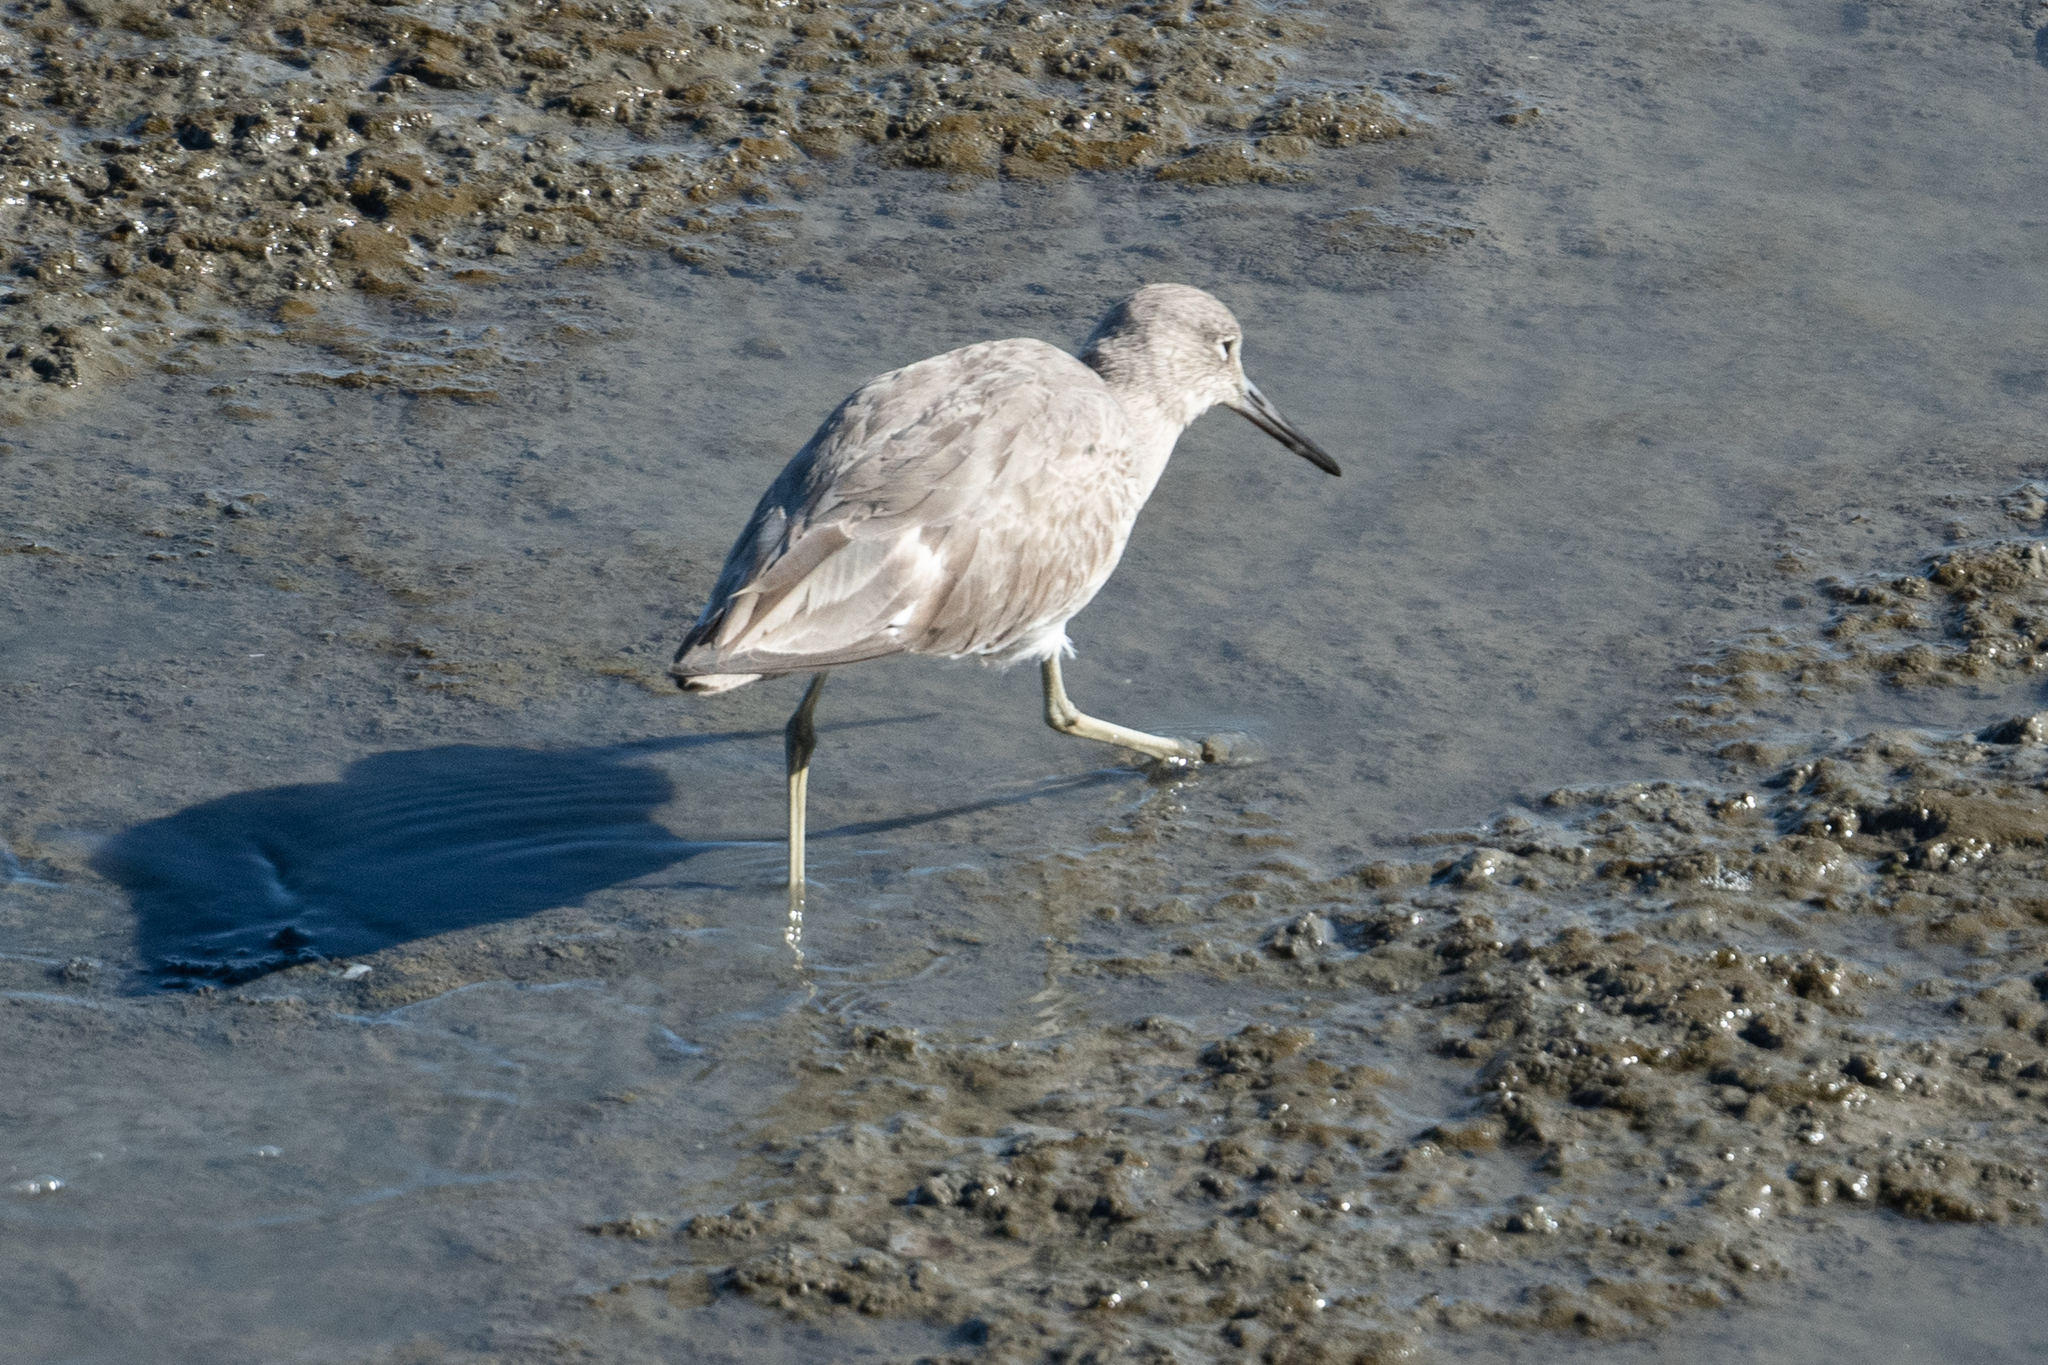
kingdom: Animalia
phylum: Chordata
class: Aves
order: Charadriiformes
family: Scolopacidae
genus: Tringa
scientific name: Tringa semipalmata
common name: Willet
